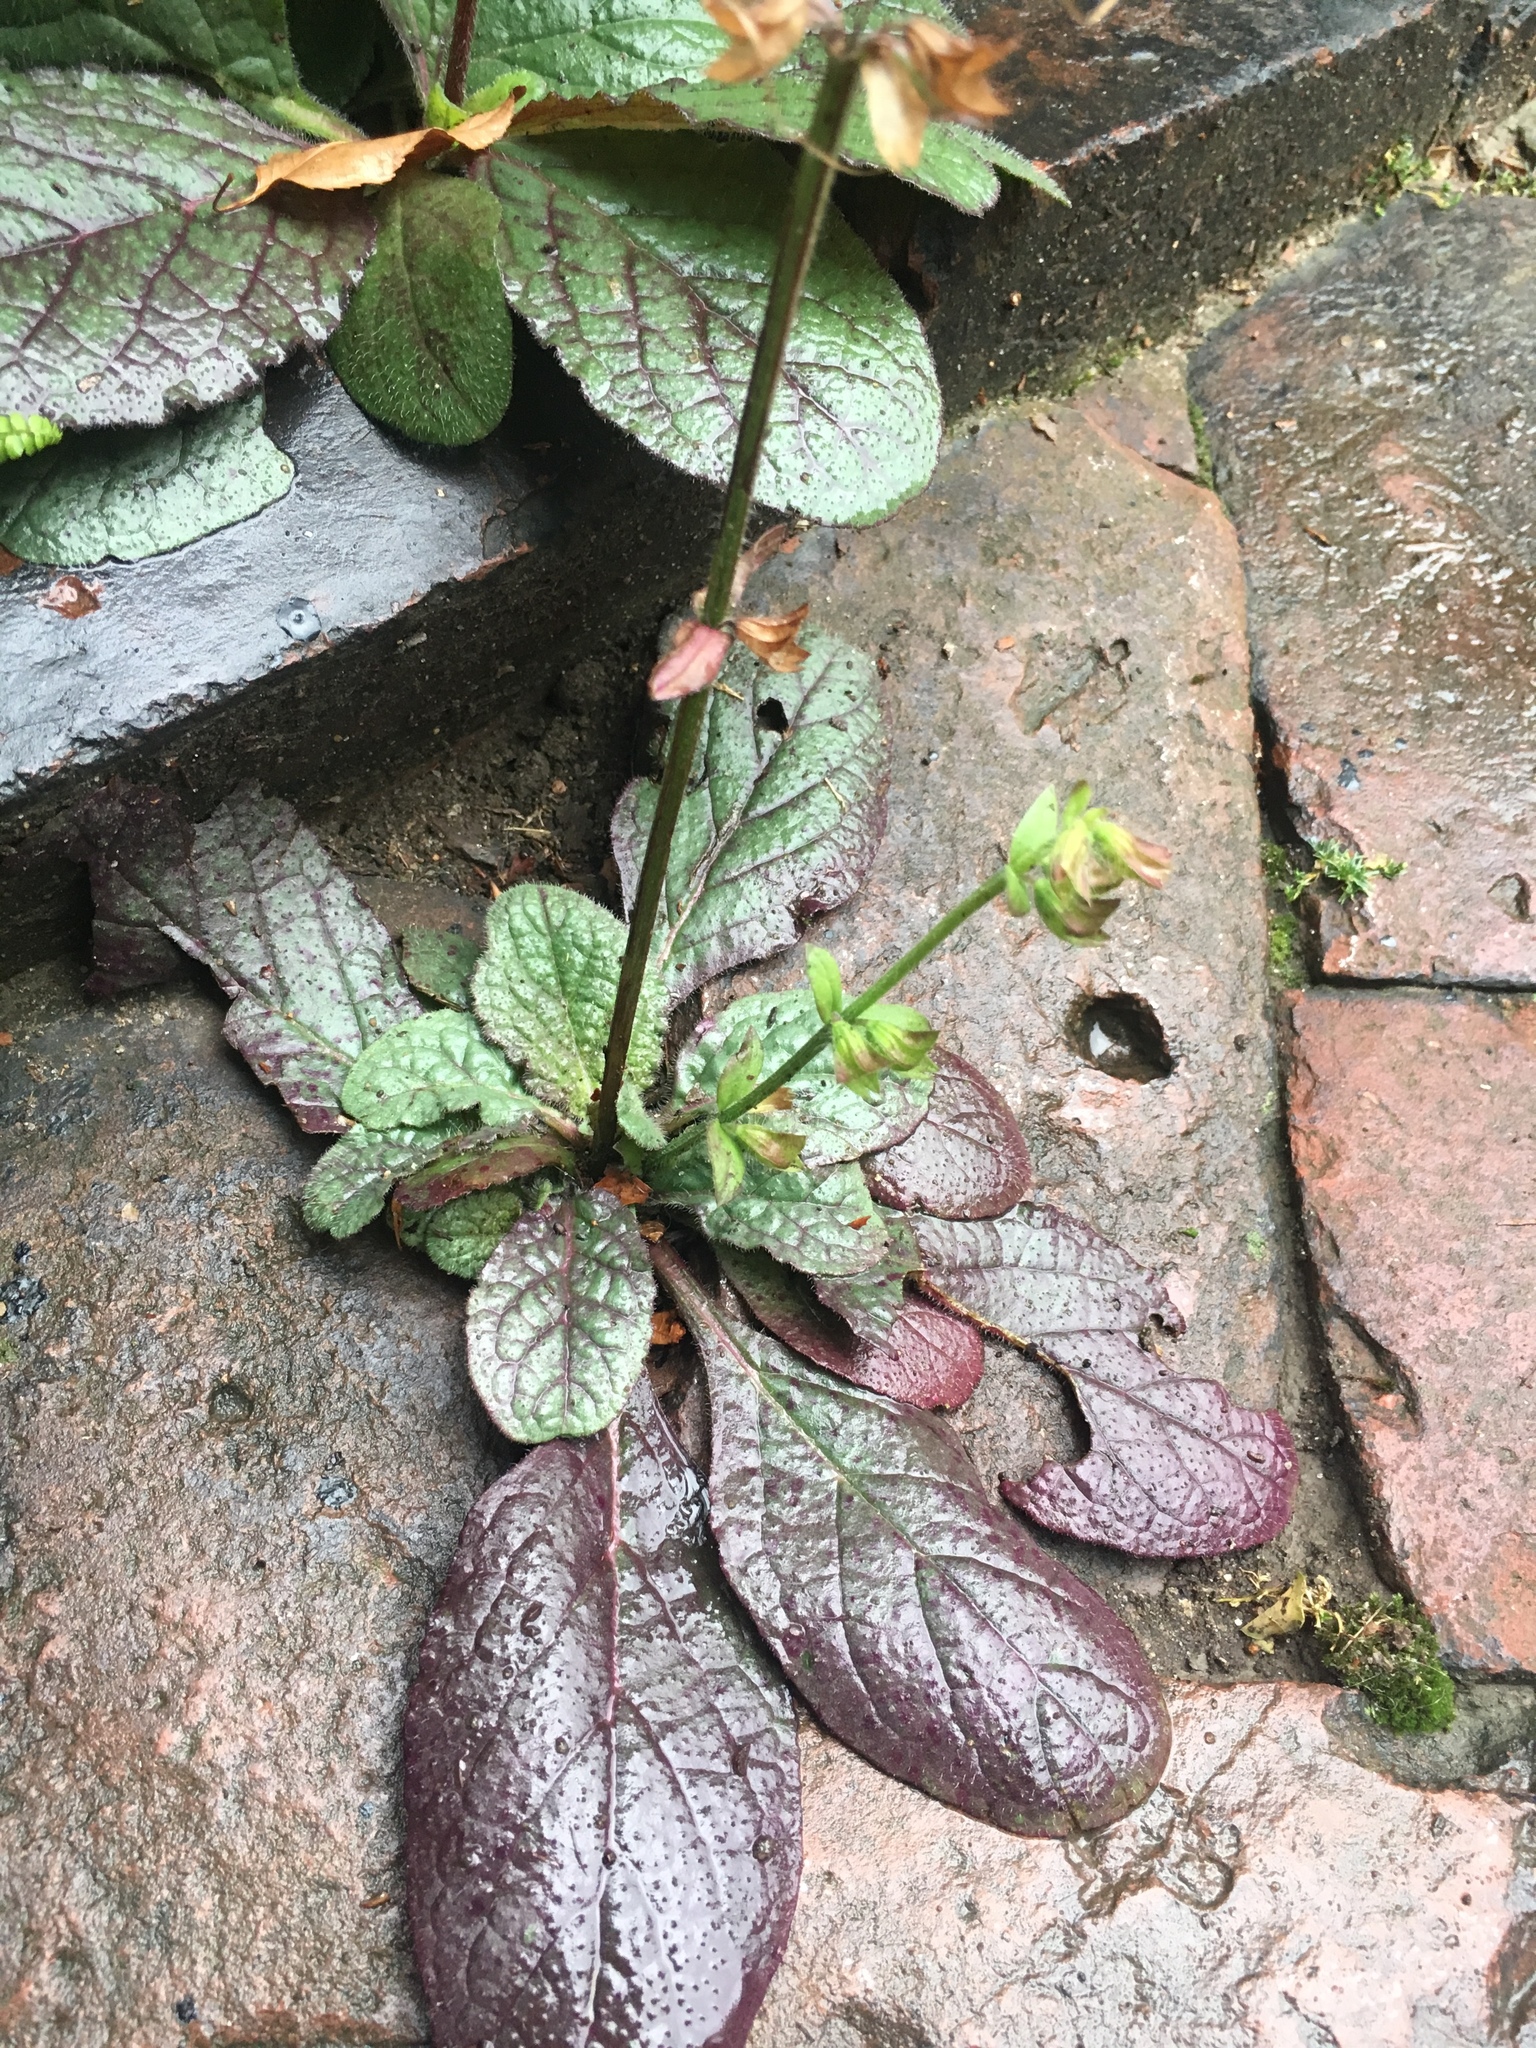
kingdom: Plantae
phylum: Tracheophyta
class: Magnoliopsida
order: Lamiales
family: Lamiaceae
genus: Salvia
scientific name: Salvia lyrata
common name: Cancerweed
